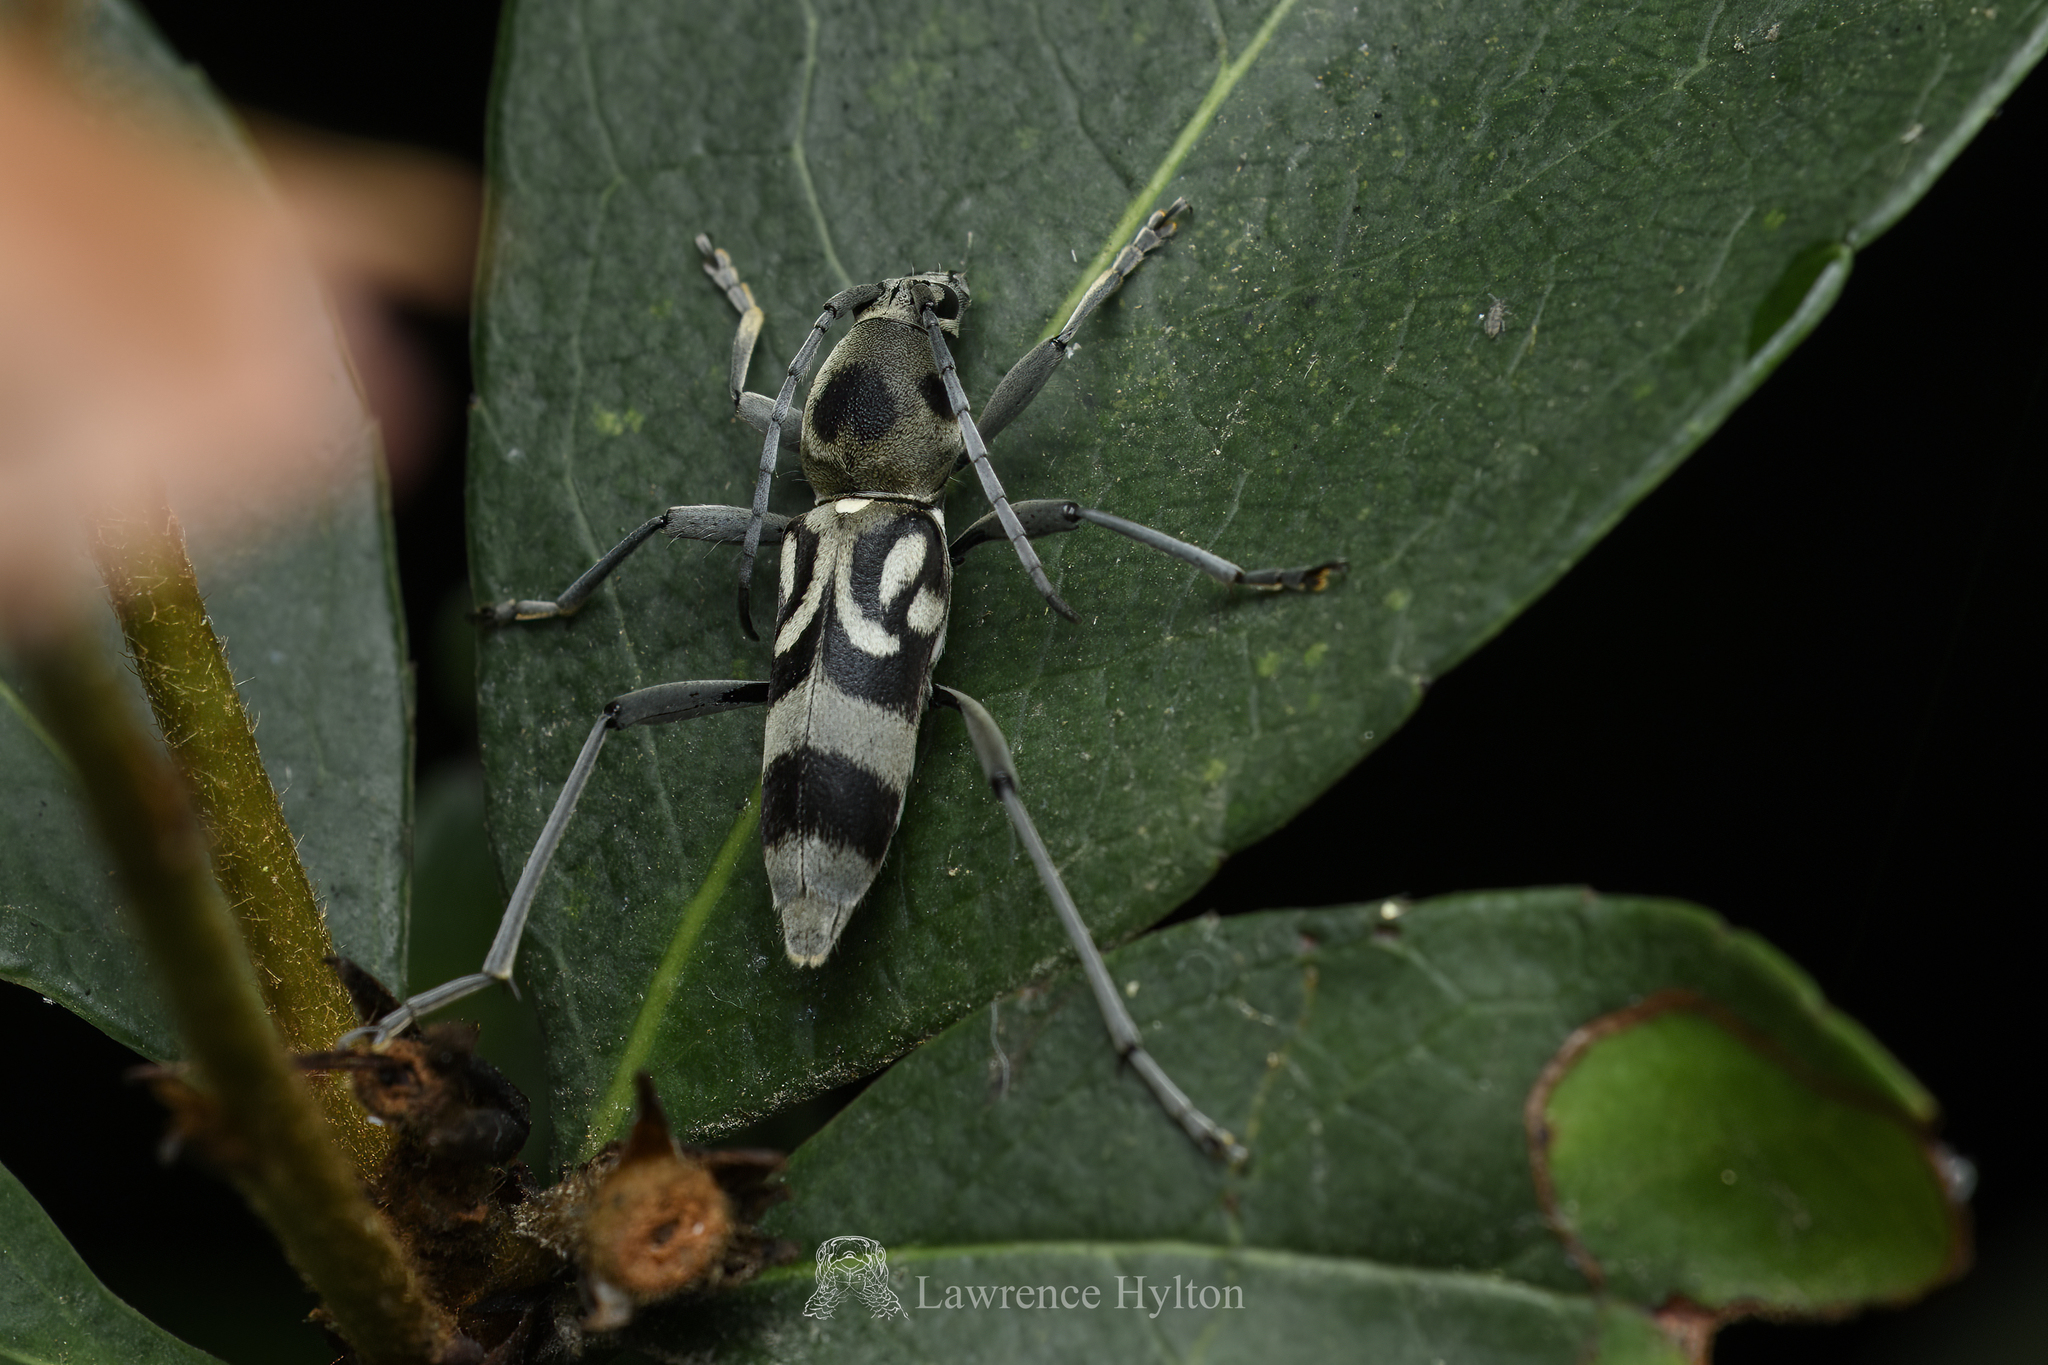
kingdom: Animalia
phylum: Arthropoda
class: Insecta
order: Coleoptera
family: Cerambycidae
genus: Chlorophorus
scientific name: Chlorophorus macaumensis
